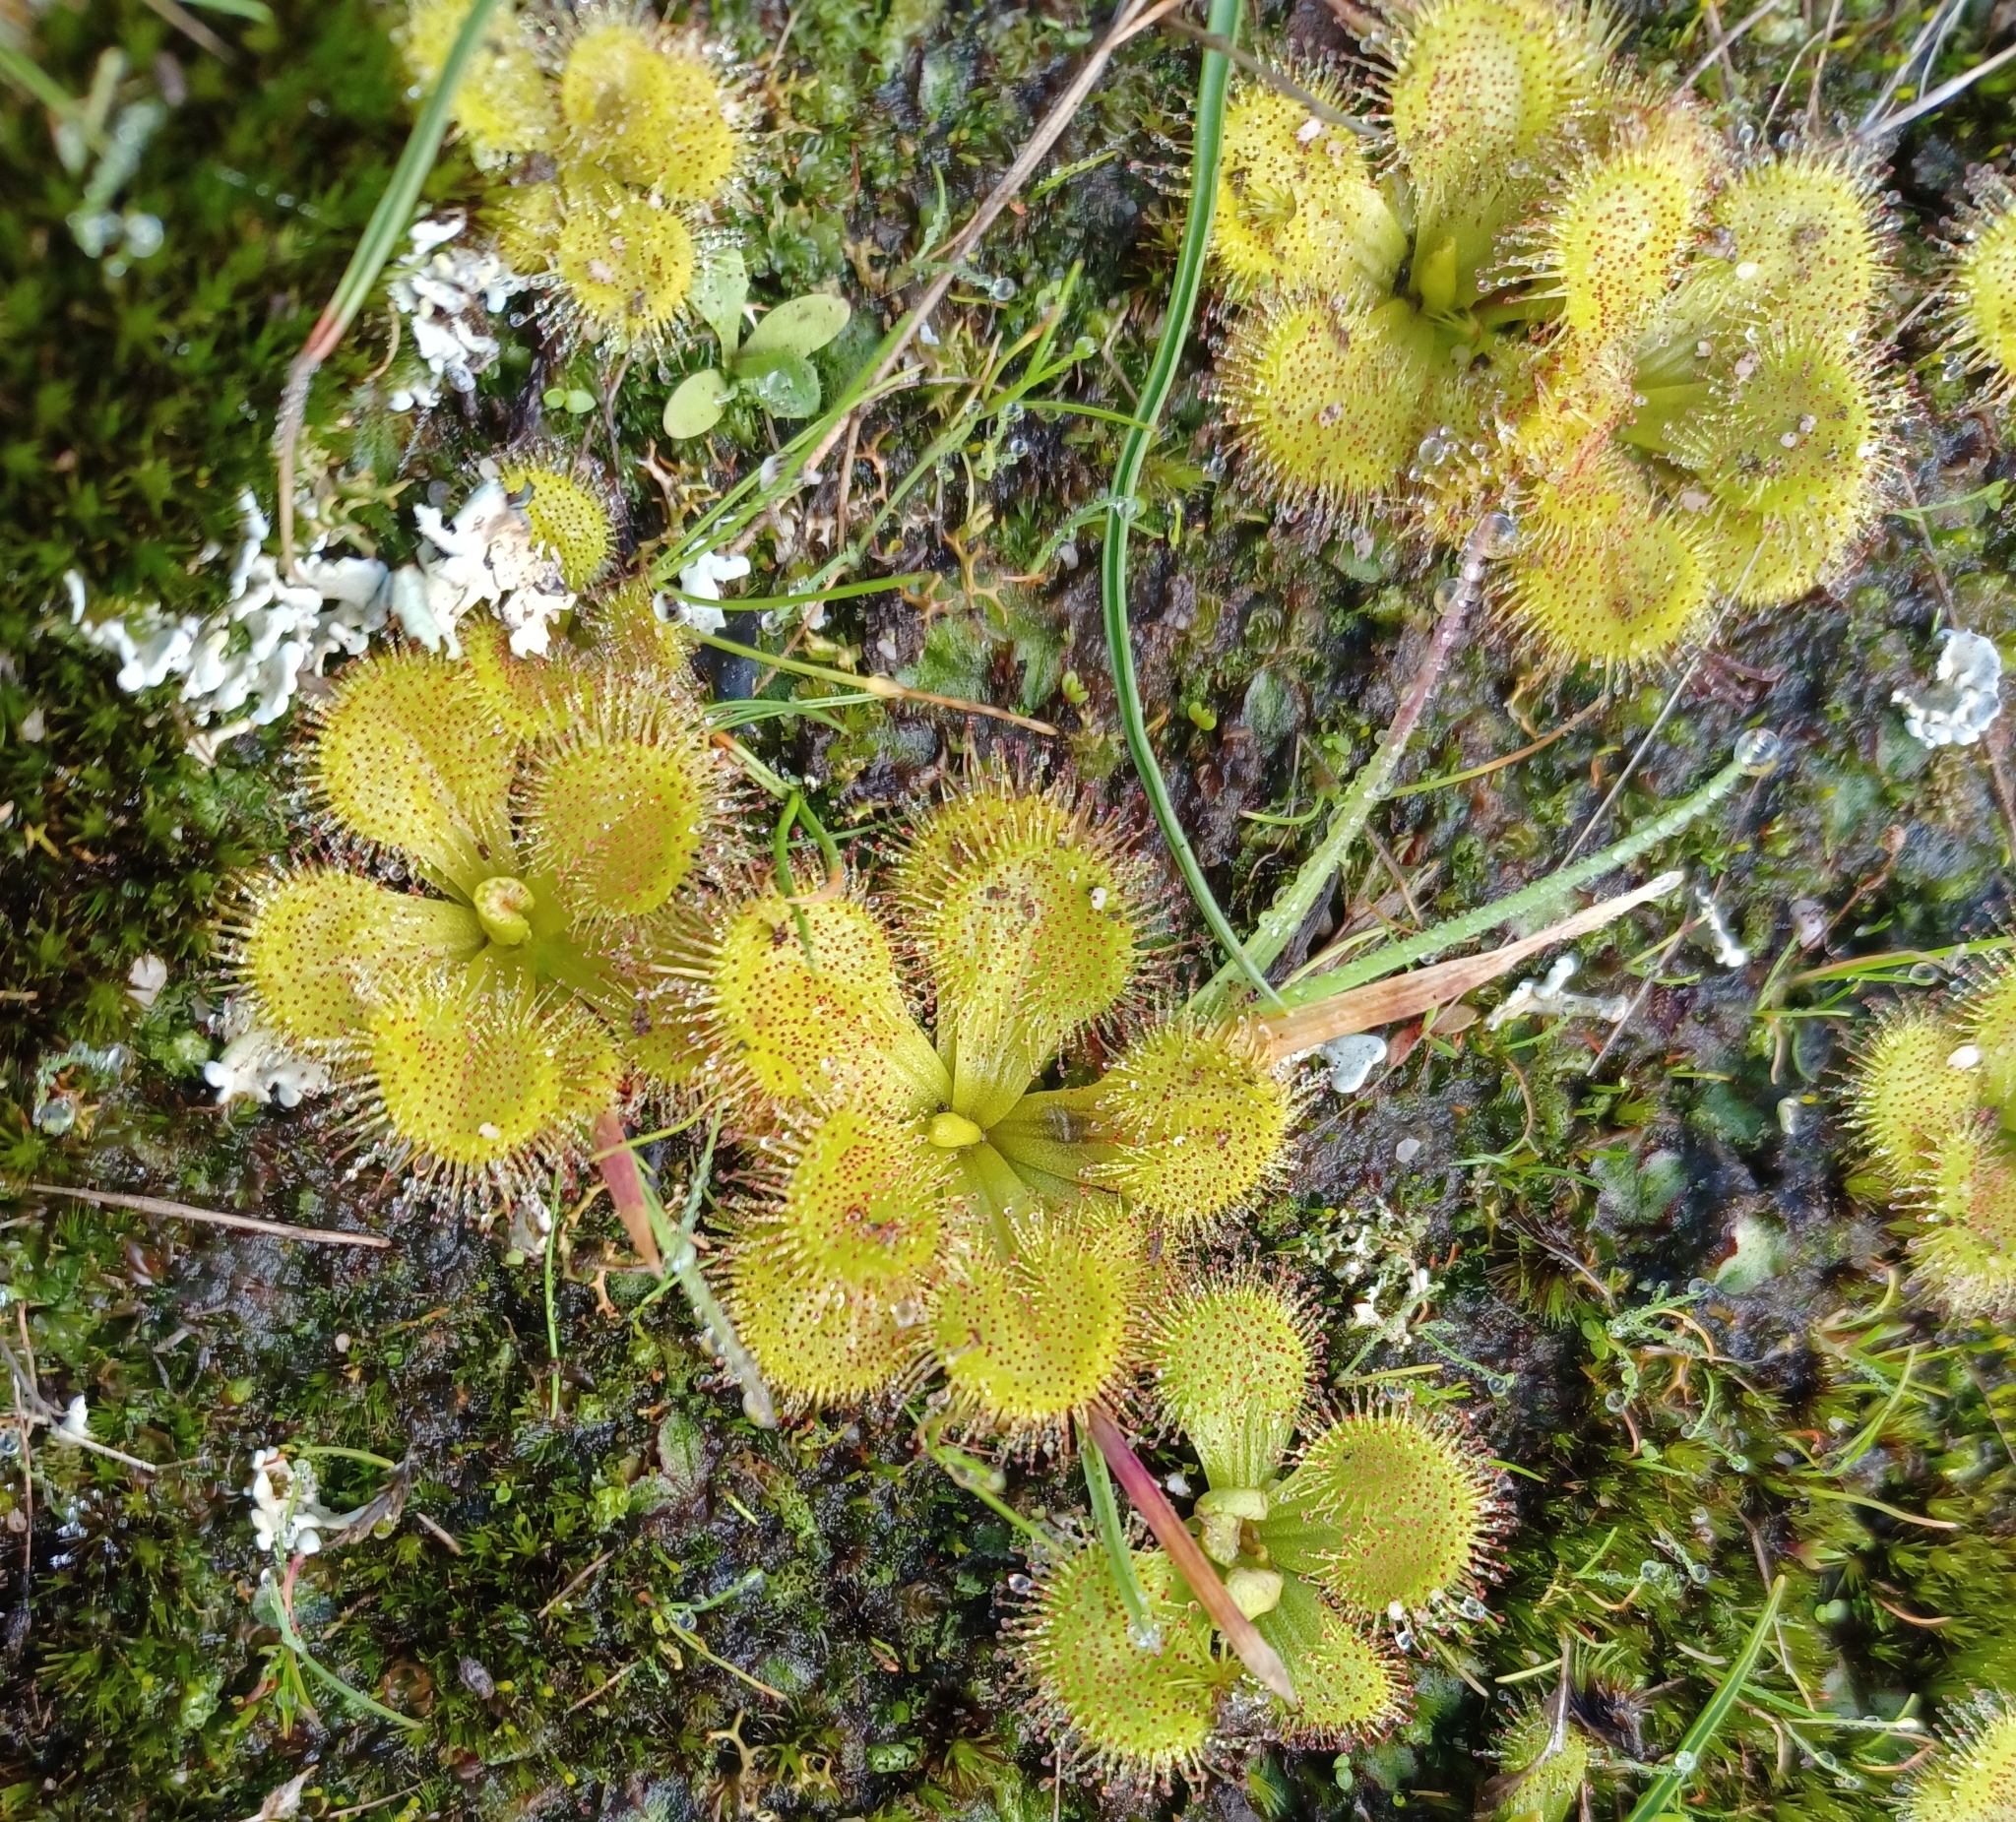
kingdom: Plantae
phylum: Tracheophyta
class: Magnoliopsida
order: Caryophyllales
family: Droseraceae
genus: Drosera
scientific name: Drosera aberrans
